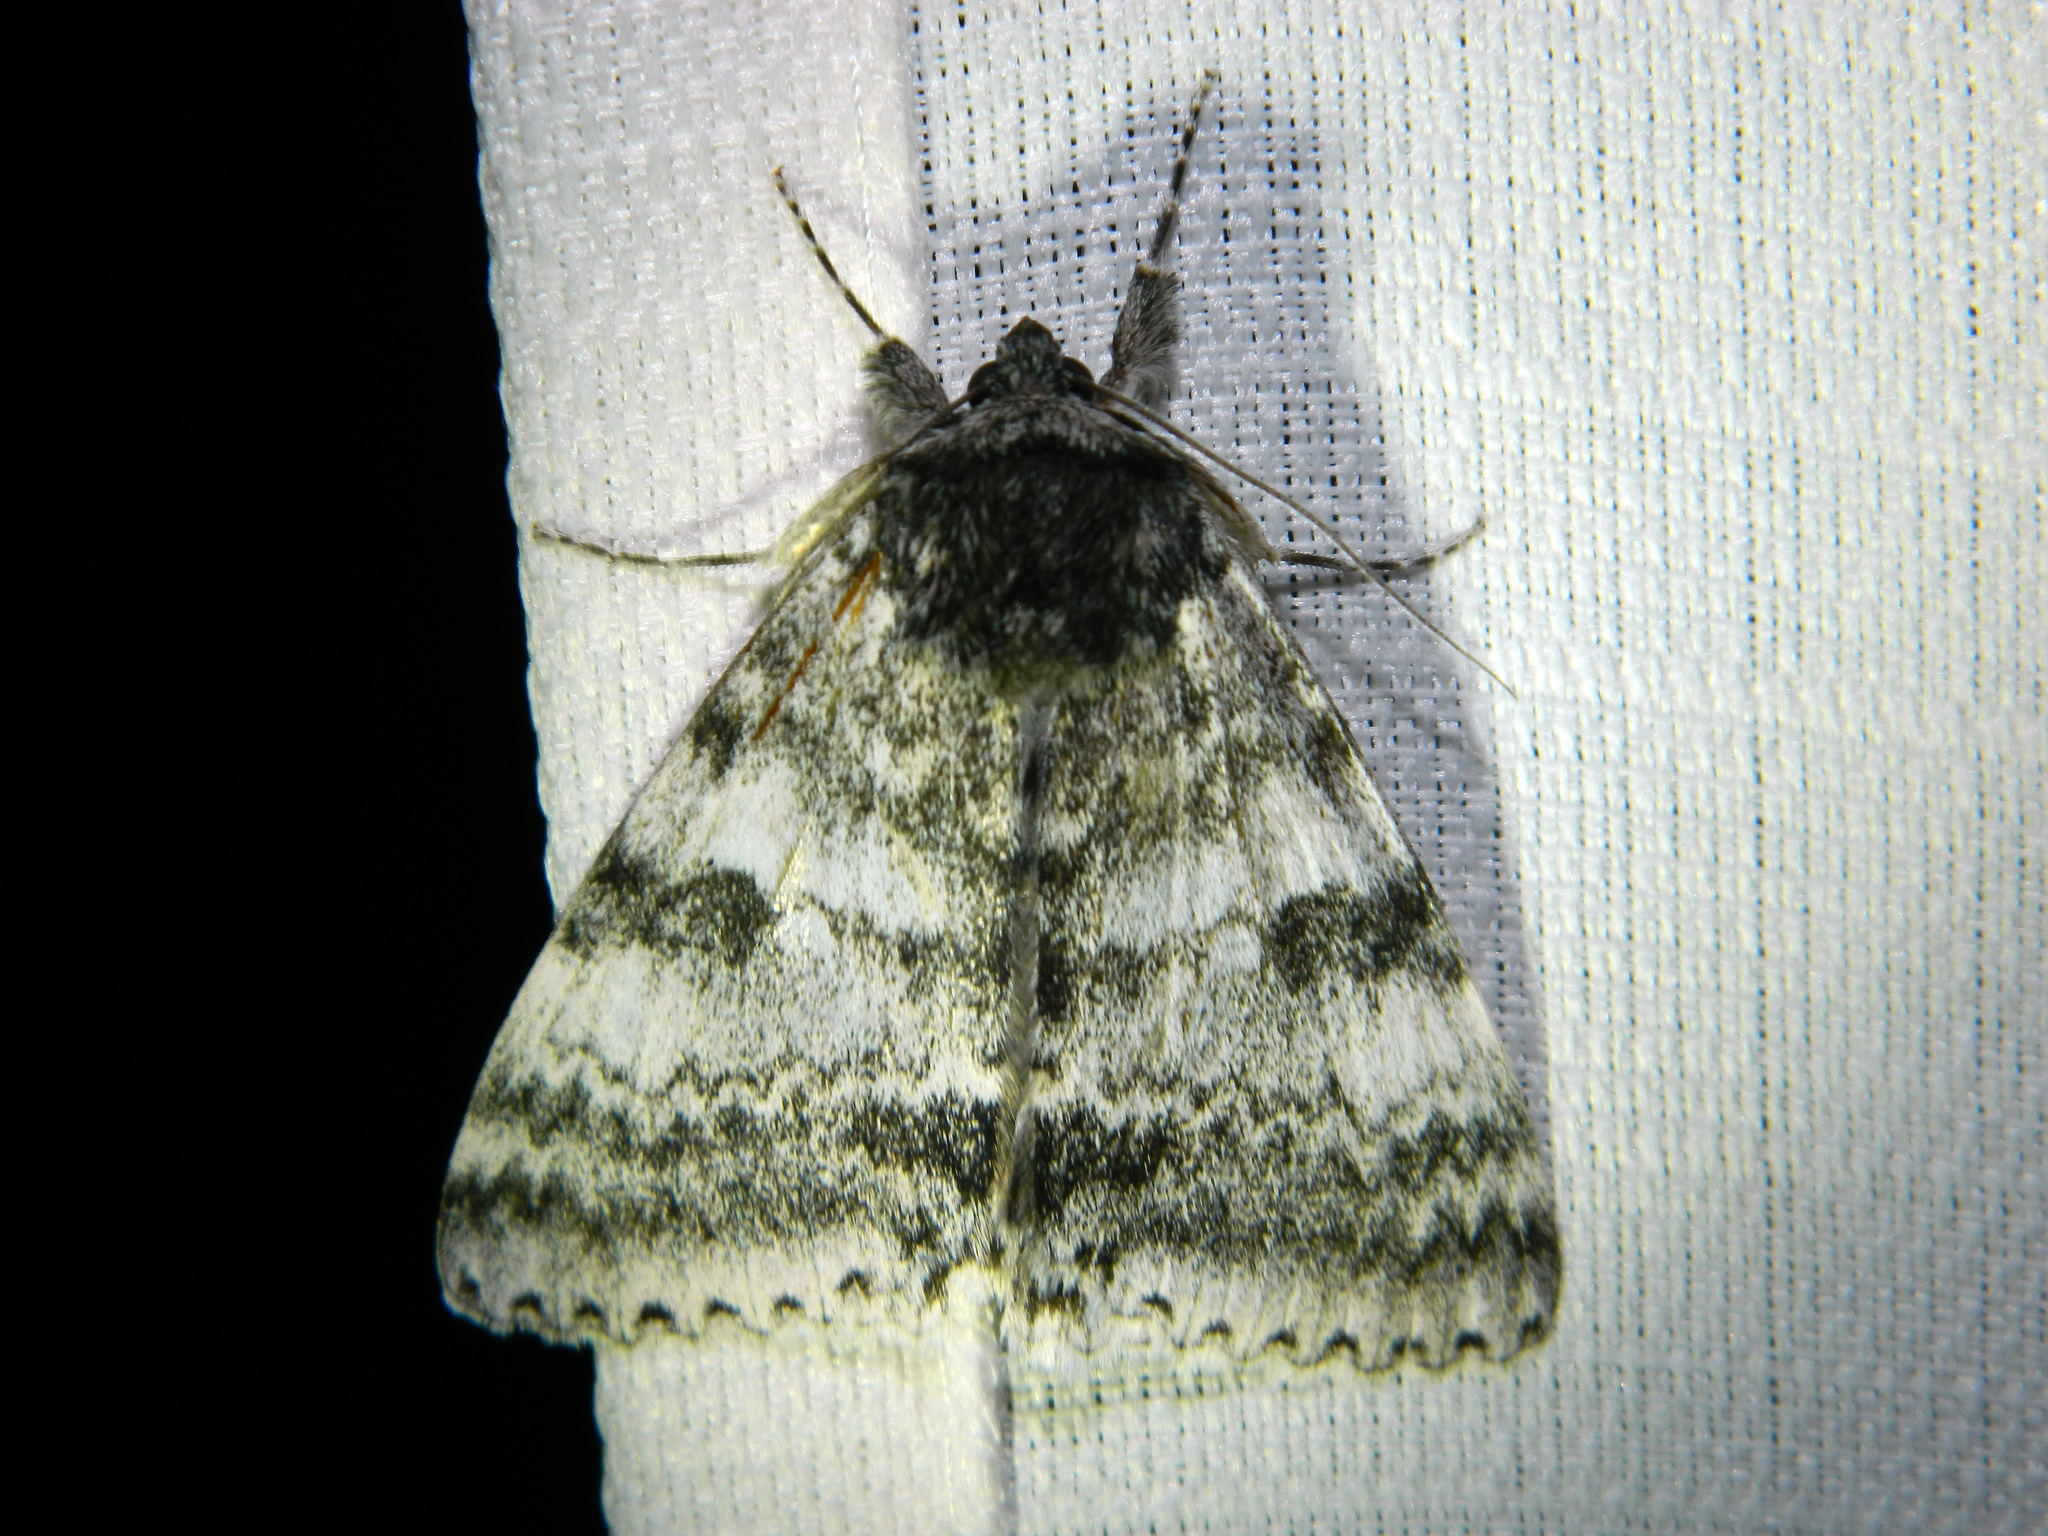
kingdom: Animalia
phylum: Arthropoda
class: Insecta
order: Lepidoptera
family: Erebidae
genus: Catocala
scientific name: Catocala relicta
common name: White underwing
